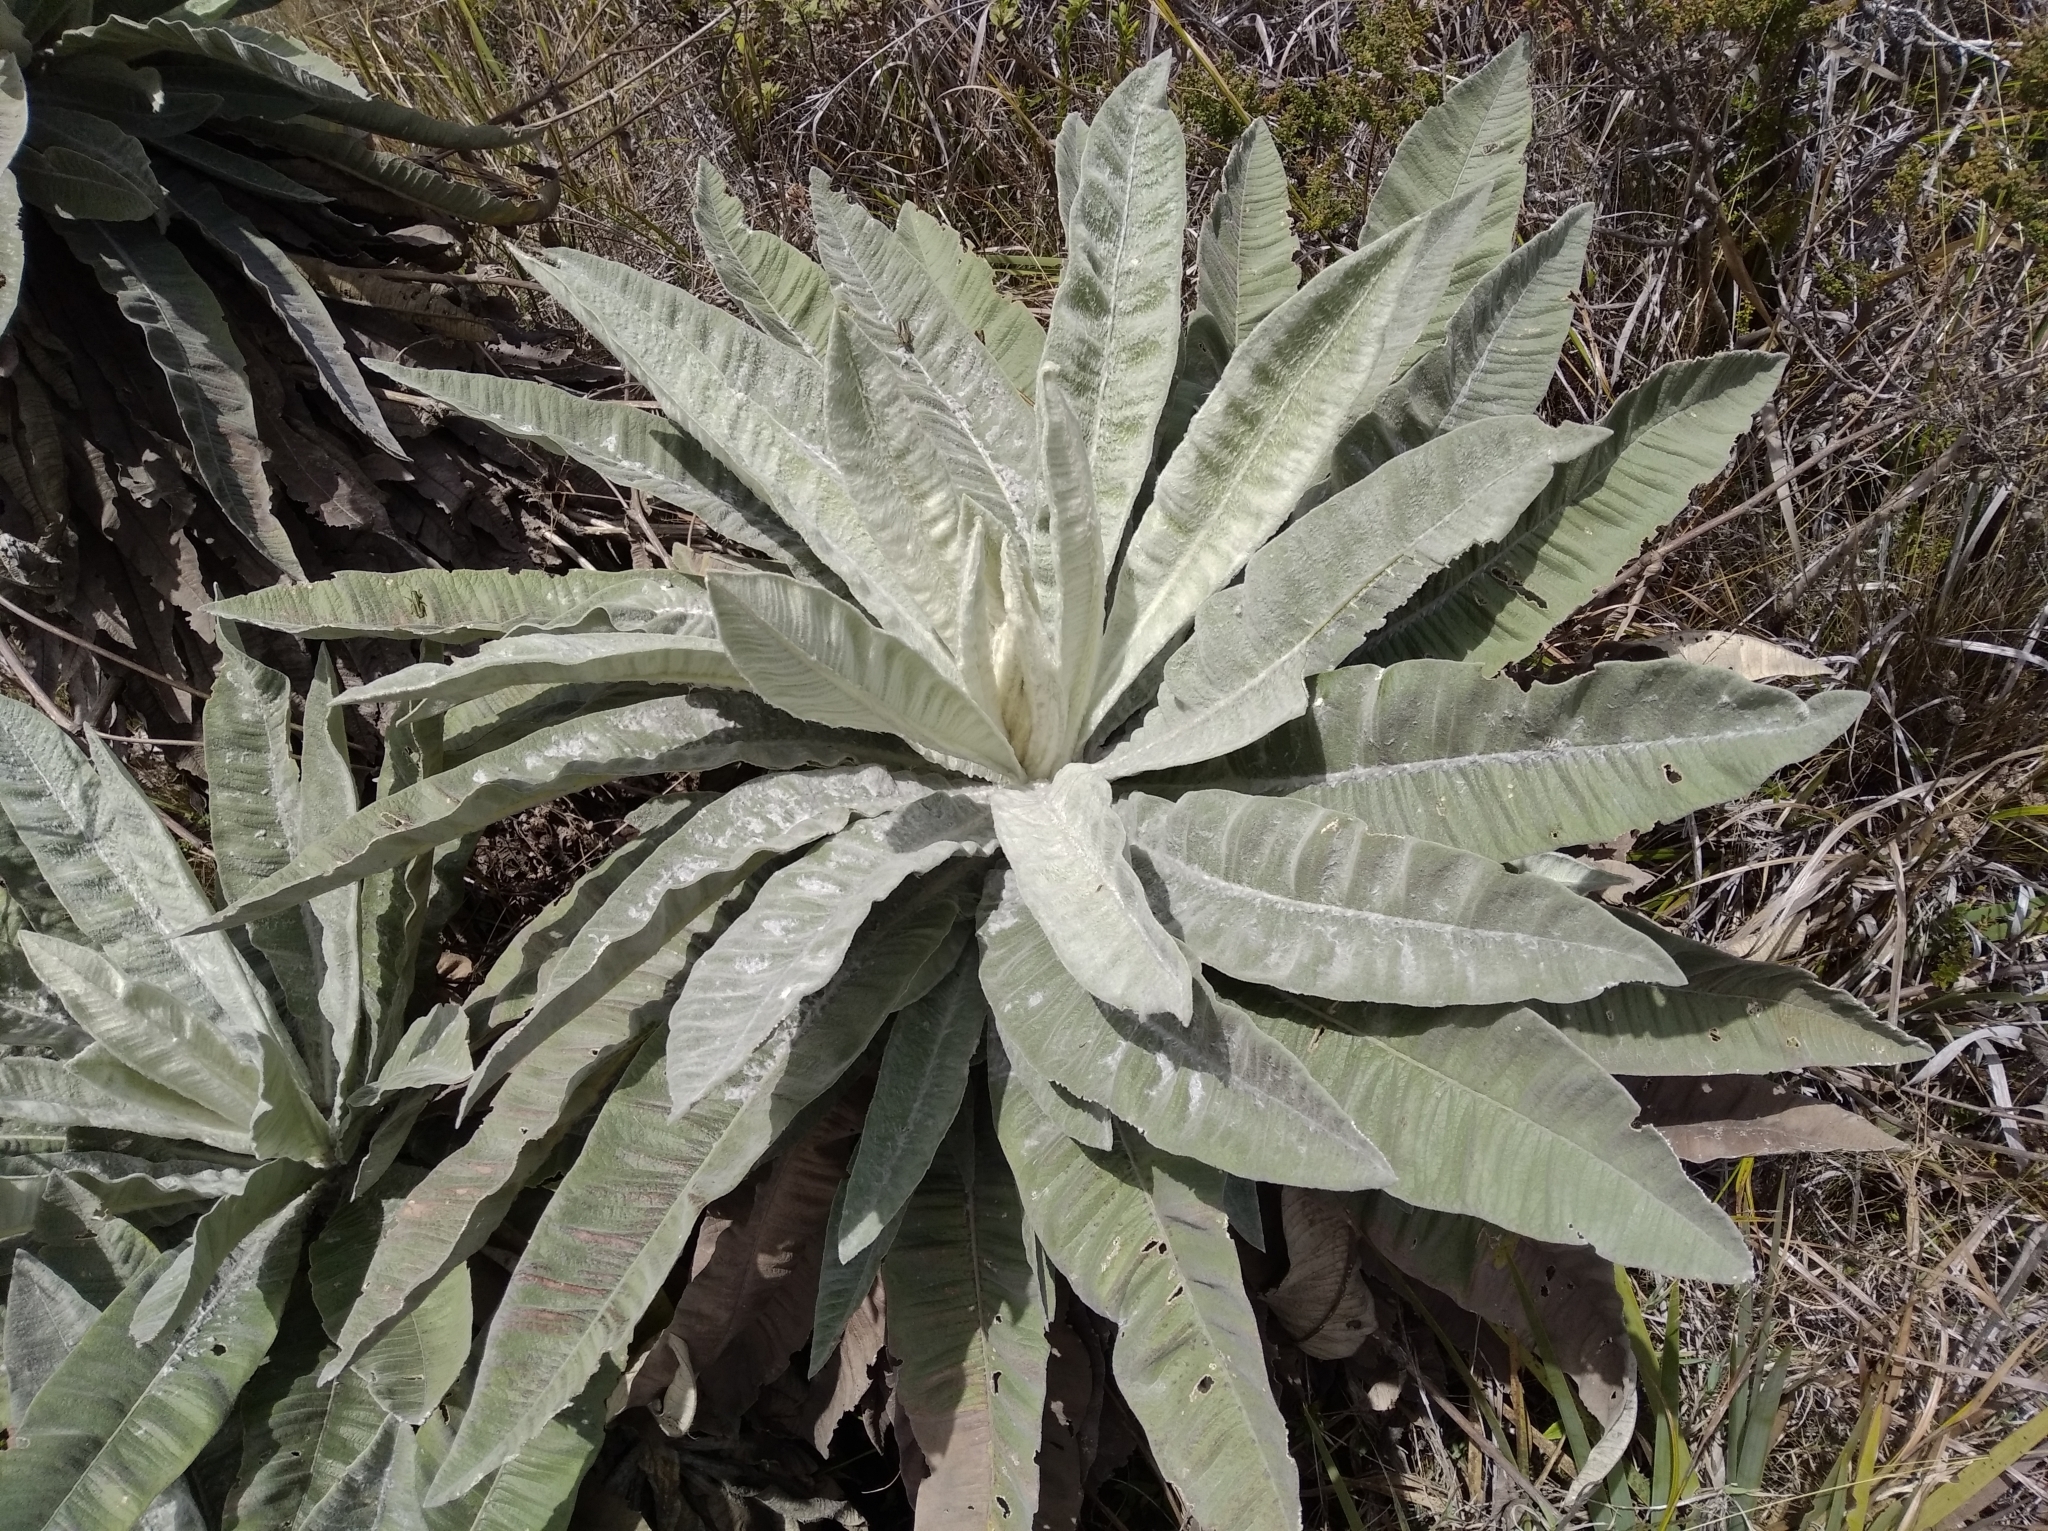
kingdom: Plantae
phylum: Tracheophyta
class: Magnoliopsida
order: Asterales
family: Asteraceae
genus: Espeletia
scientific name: Espeletia cristalinensis
